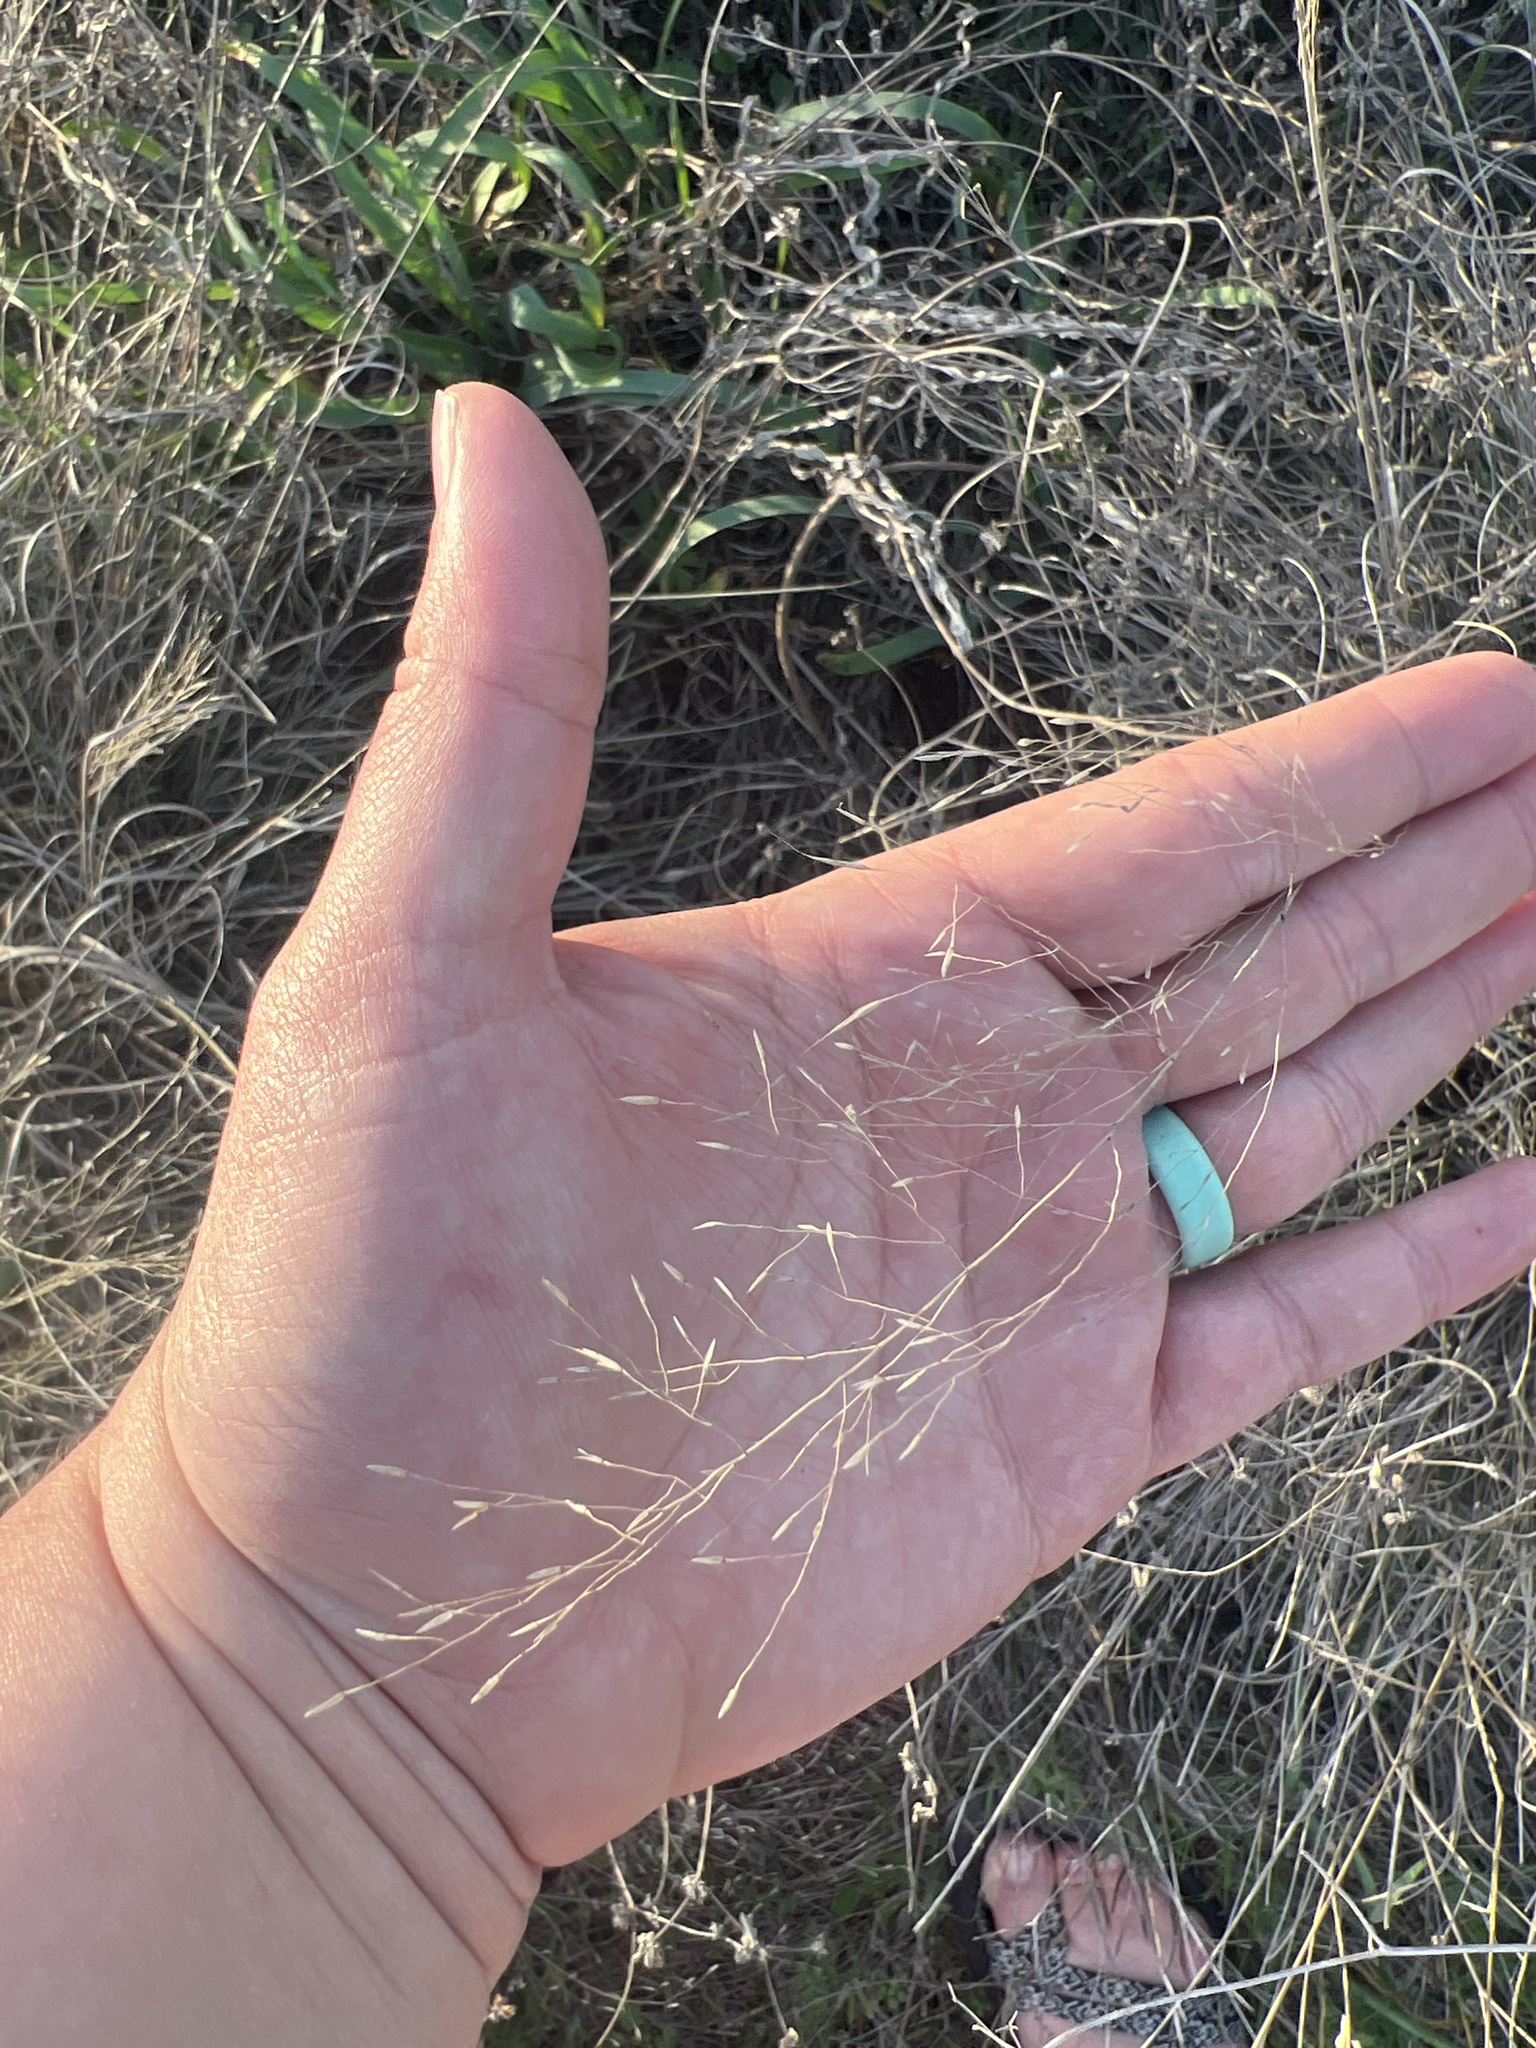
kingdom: Plantae
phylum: Tracheophyta
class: Liliopsida
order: Poales
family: Poaceae
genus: Muhlenbergia
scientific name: Muhlenbergia reverchonii
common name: Seep muhly
